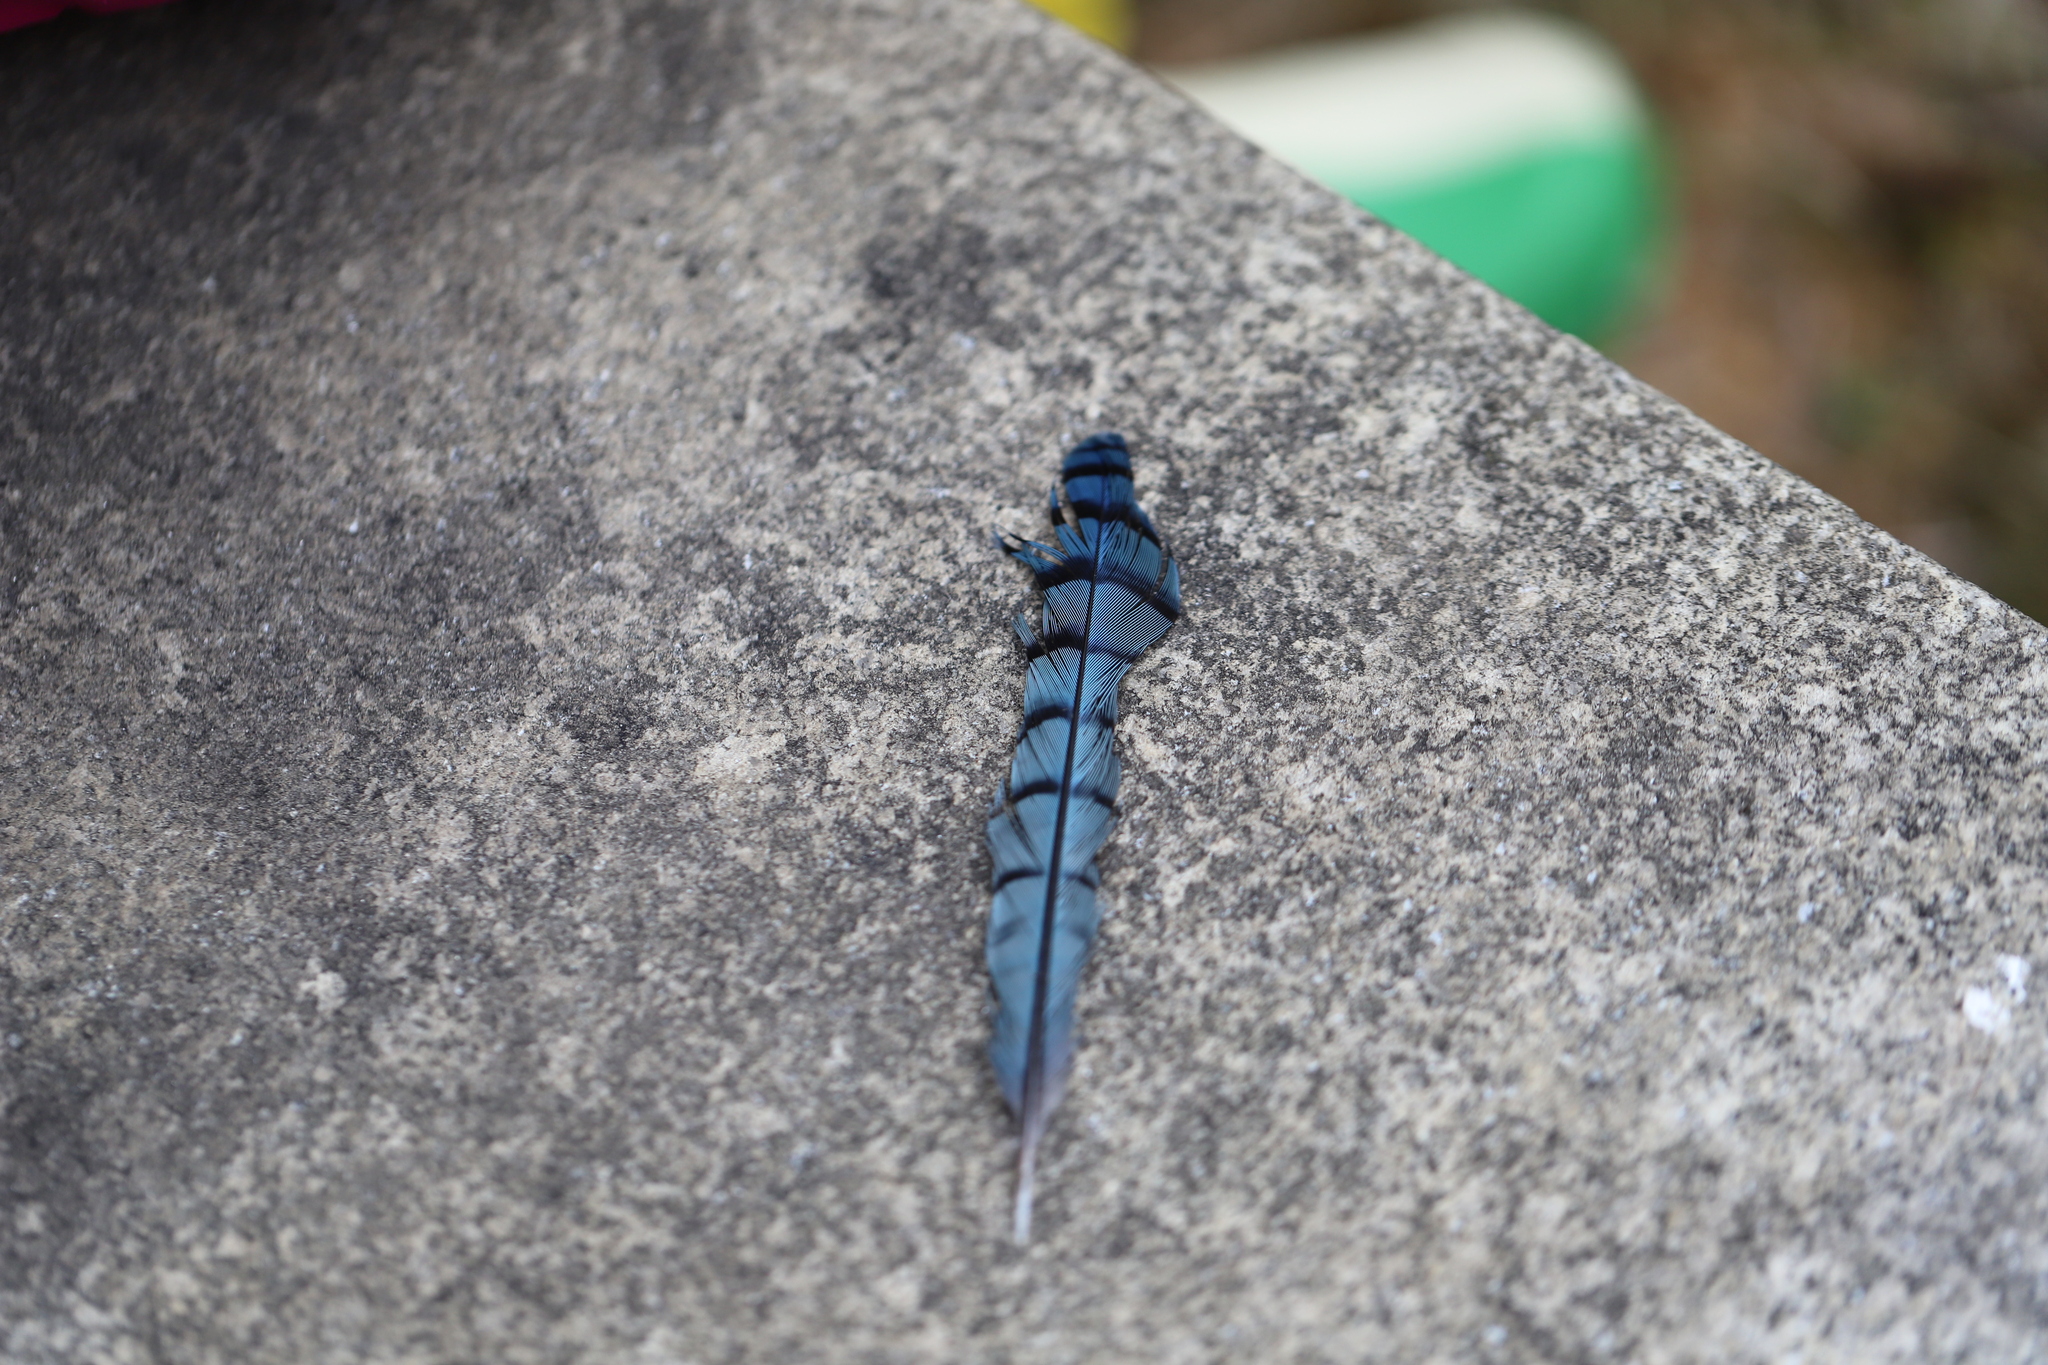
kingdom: Animalia
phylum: Chordata
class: Aves
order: Passeriformes
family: Corvidae
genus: Cyanocitta
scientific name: Cyanocitta cristata
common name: Blue jay
